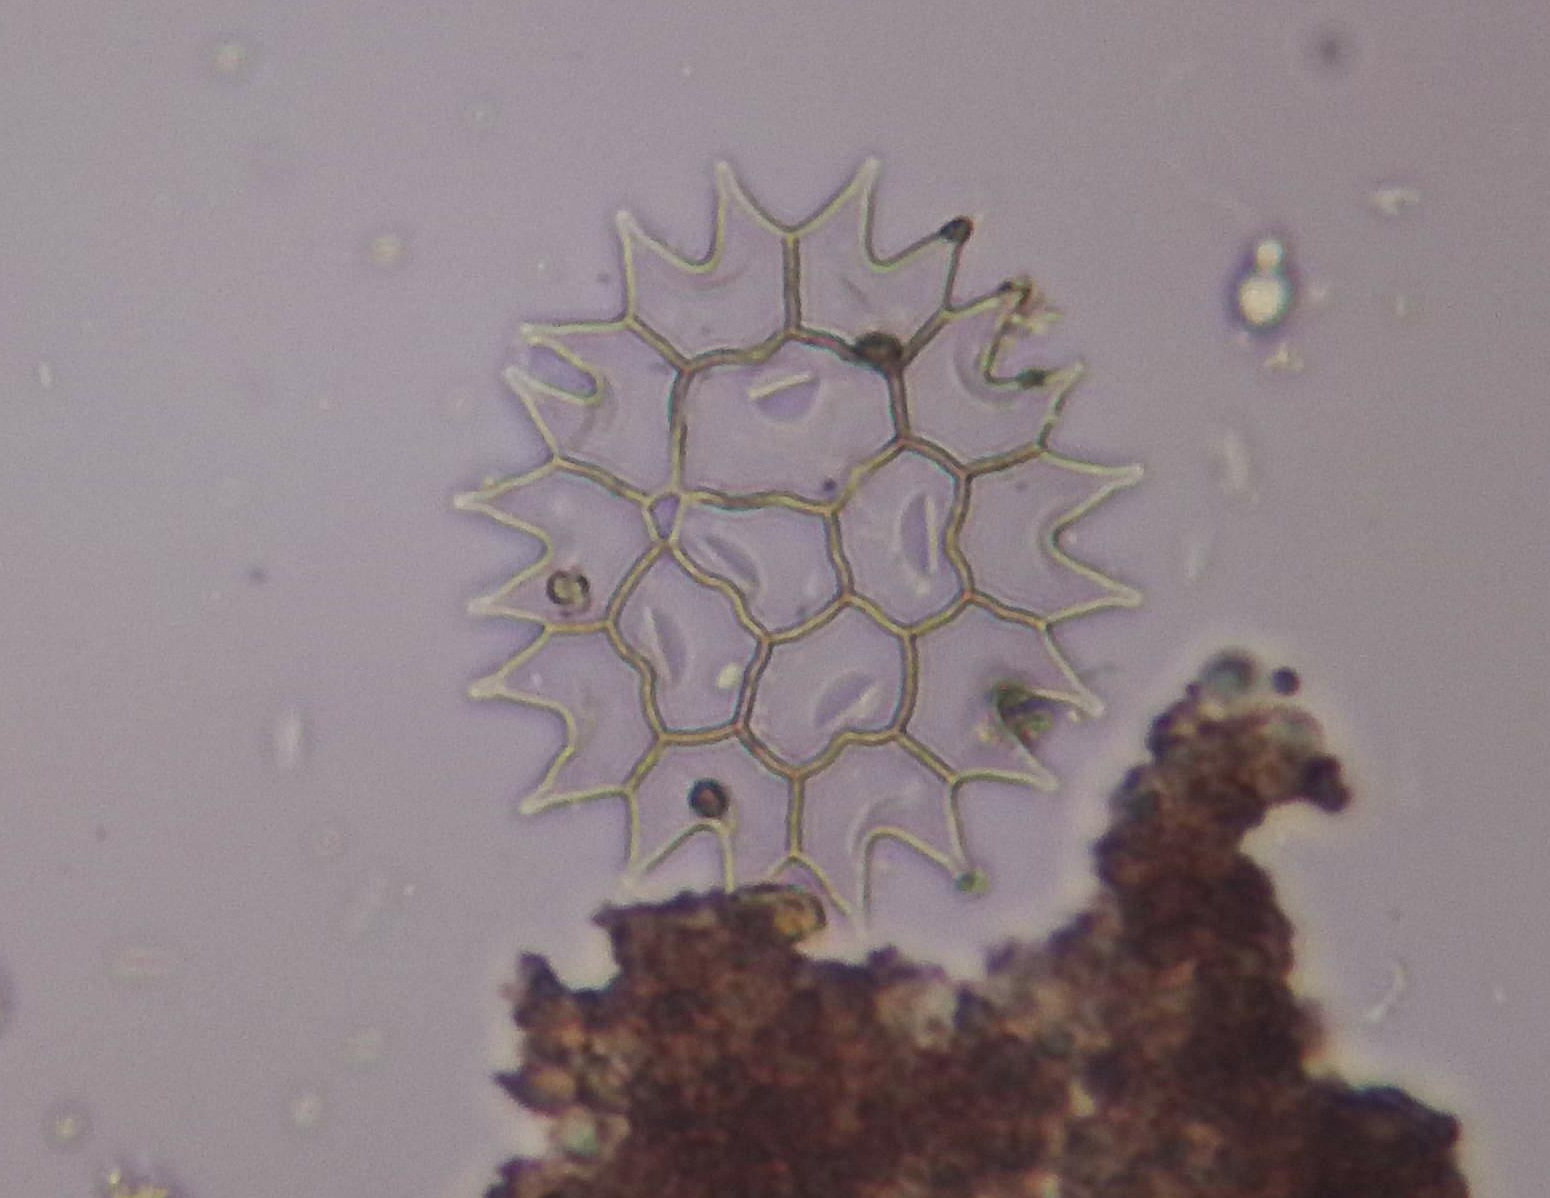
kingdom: Plantae
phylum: Chlorophyta
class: Chlorophyceae
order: Sphaeropleales
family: Hydrodictyaceae
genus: Pseudopediastrum
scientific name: Pseudopediastrum boryanum
